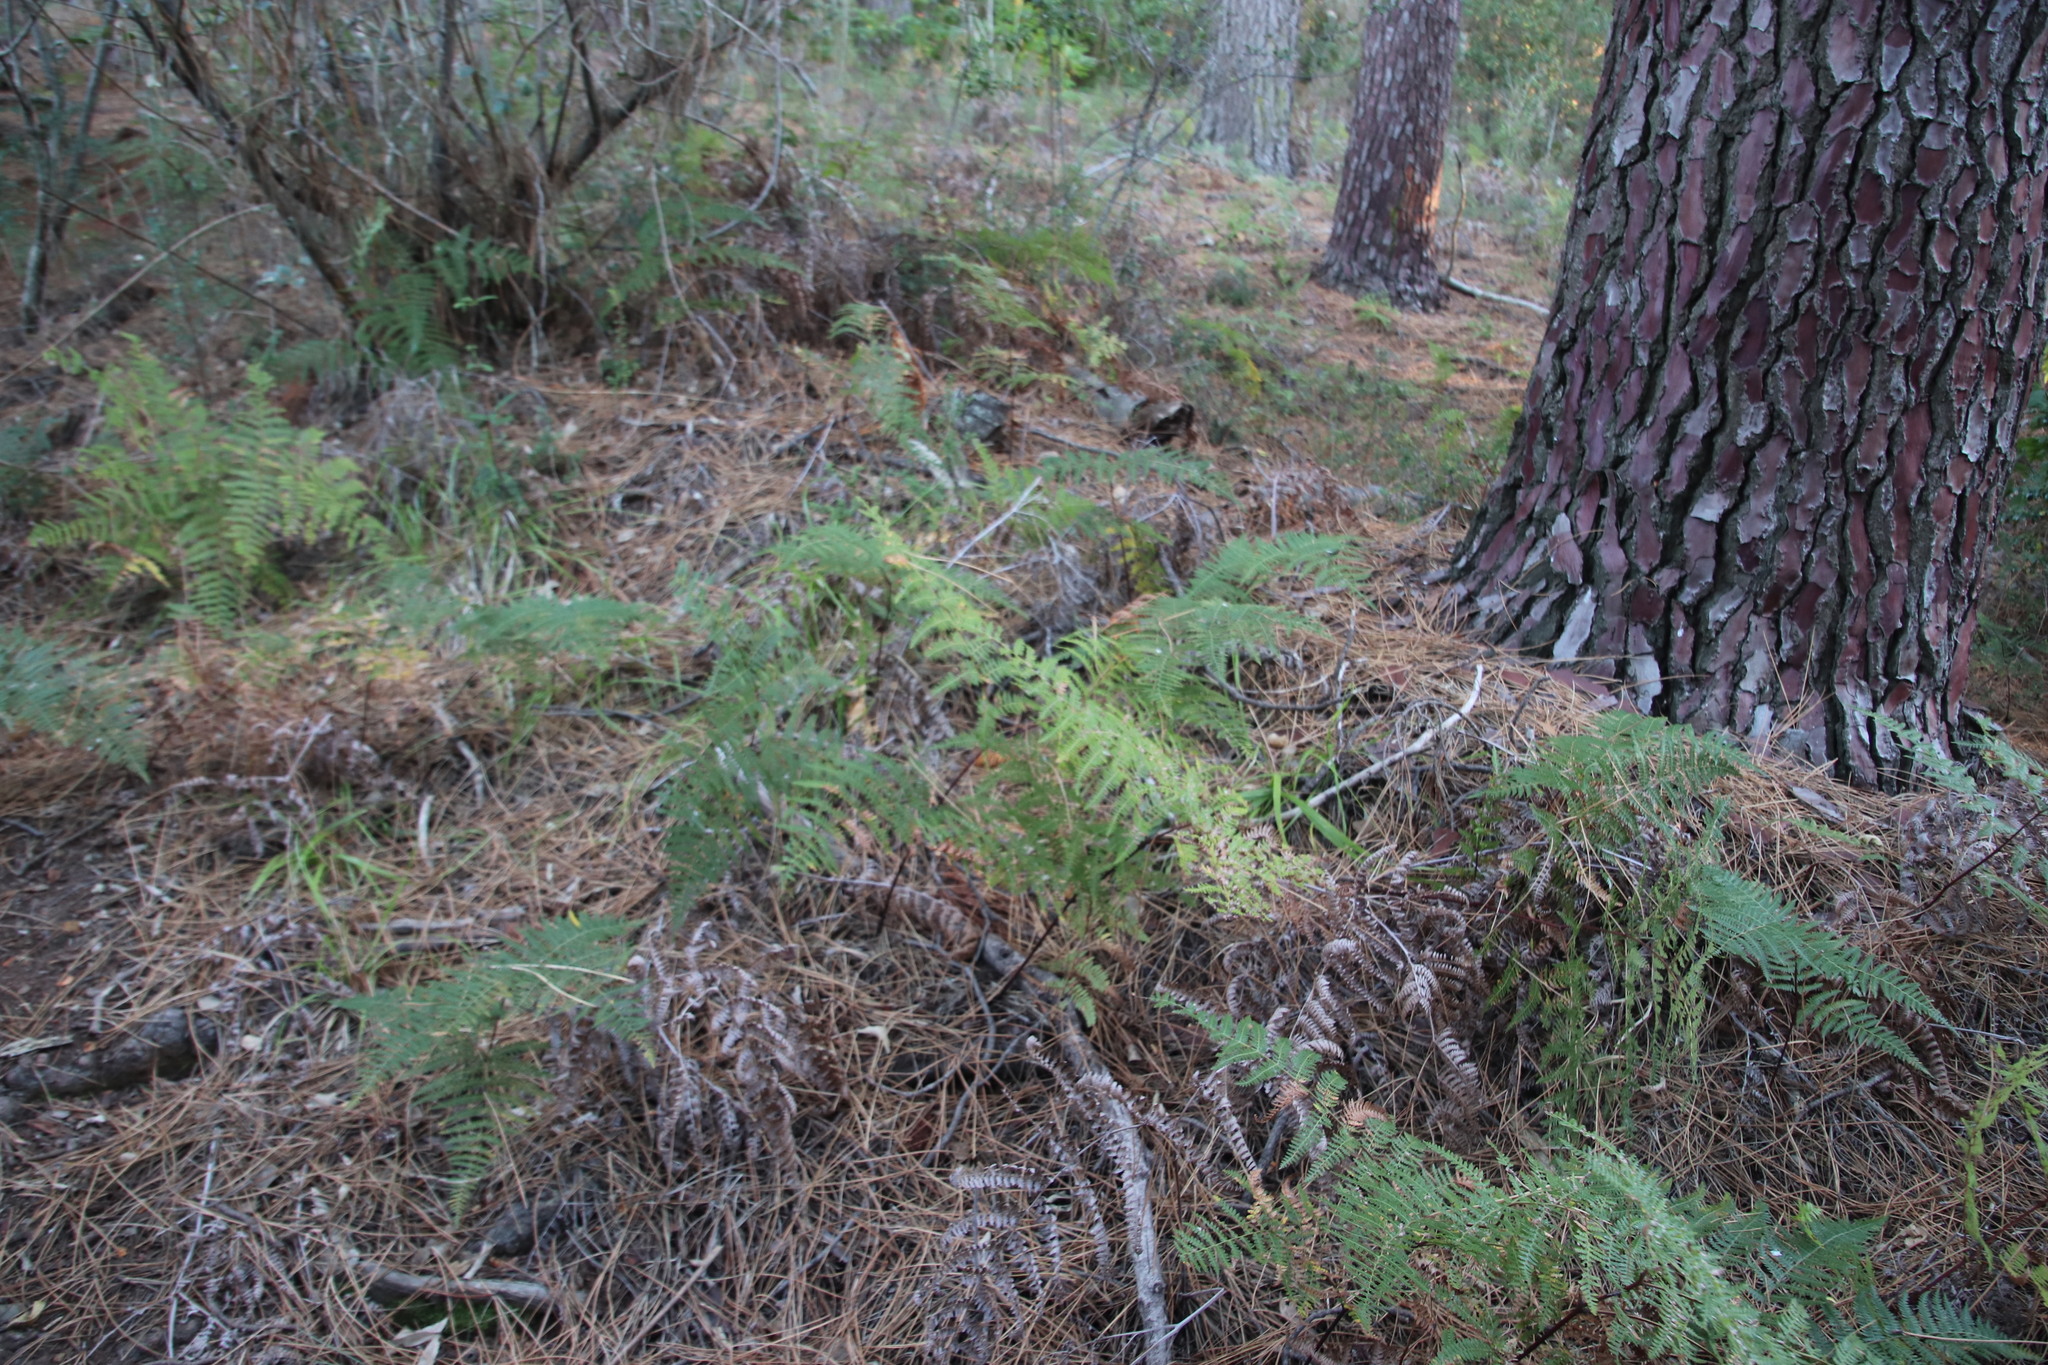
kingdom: Plantae
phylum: Tracheophyta
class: Polypodiopsida
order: Polypodiales
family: Dennstaedtiaceae
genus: Pteridium
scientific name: Pteridium aquilinum
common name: Bracken
